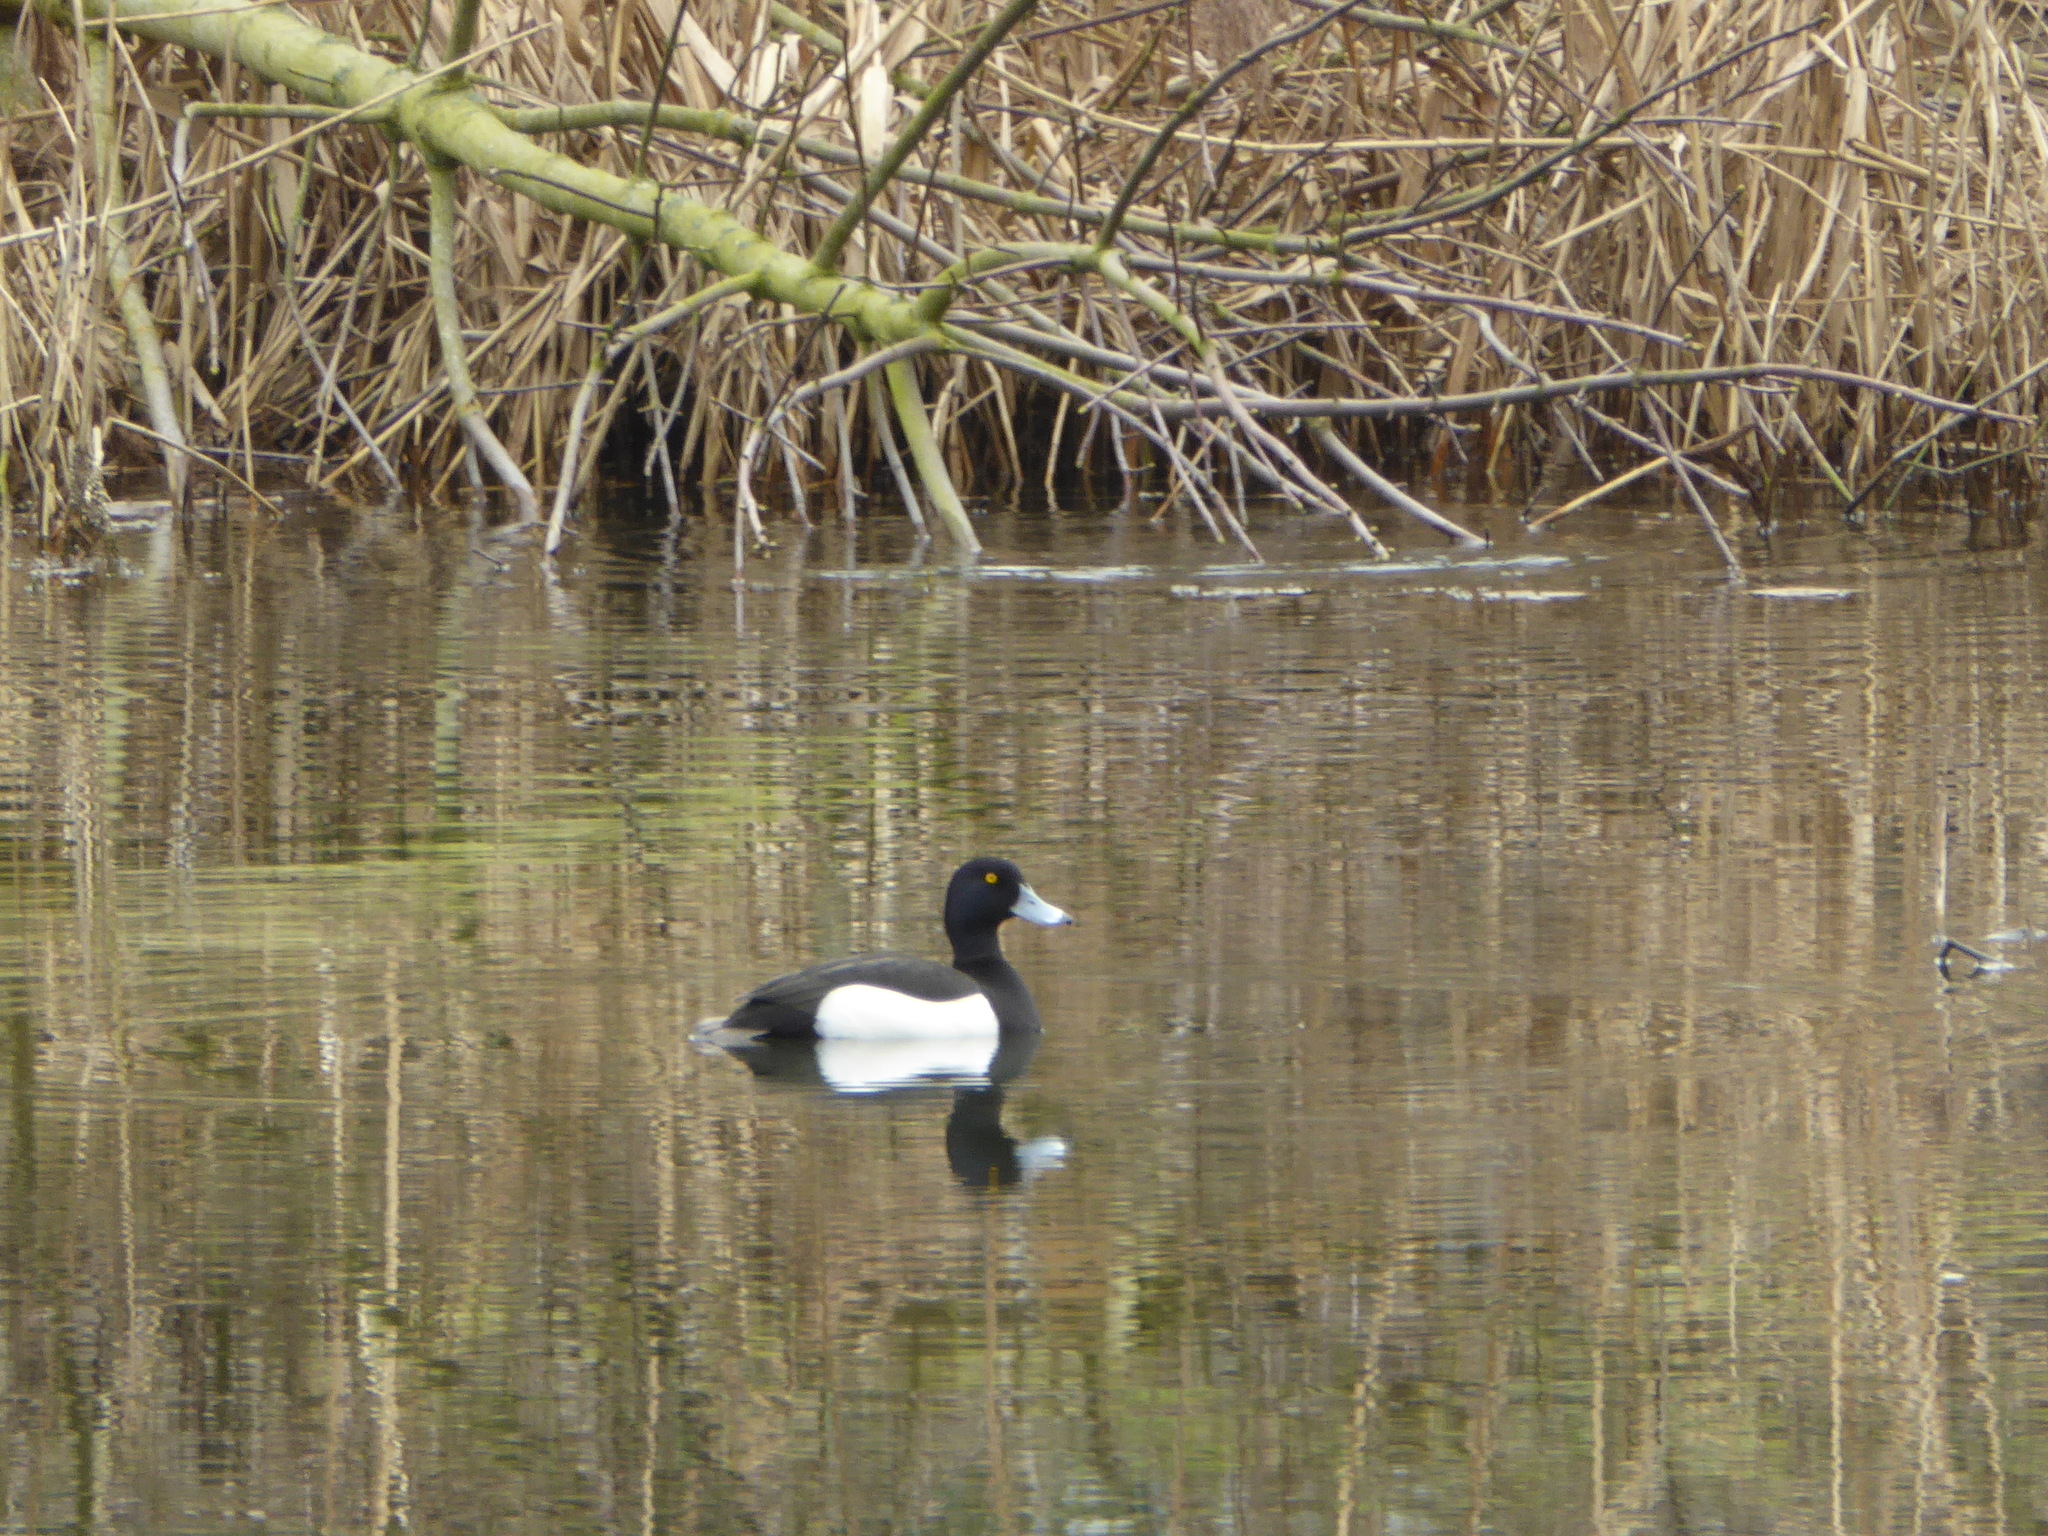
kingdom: Animalia
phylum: Chordata
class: Aves
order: Anseriformes
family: Anatidae
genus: Aythya
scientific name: Aythya fuligula
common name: Tufted duck
